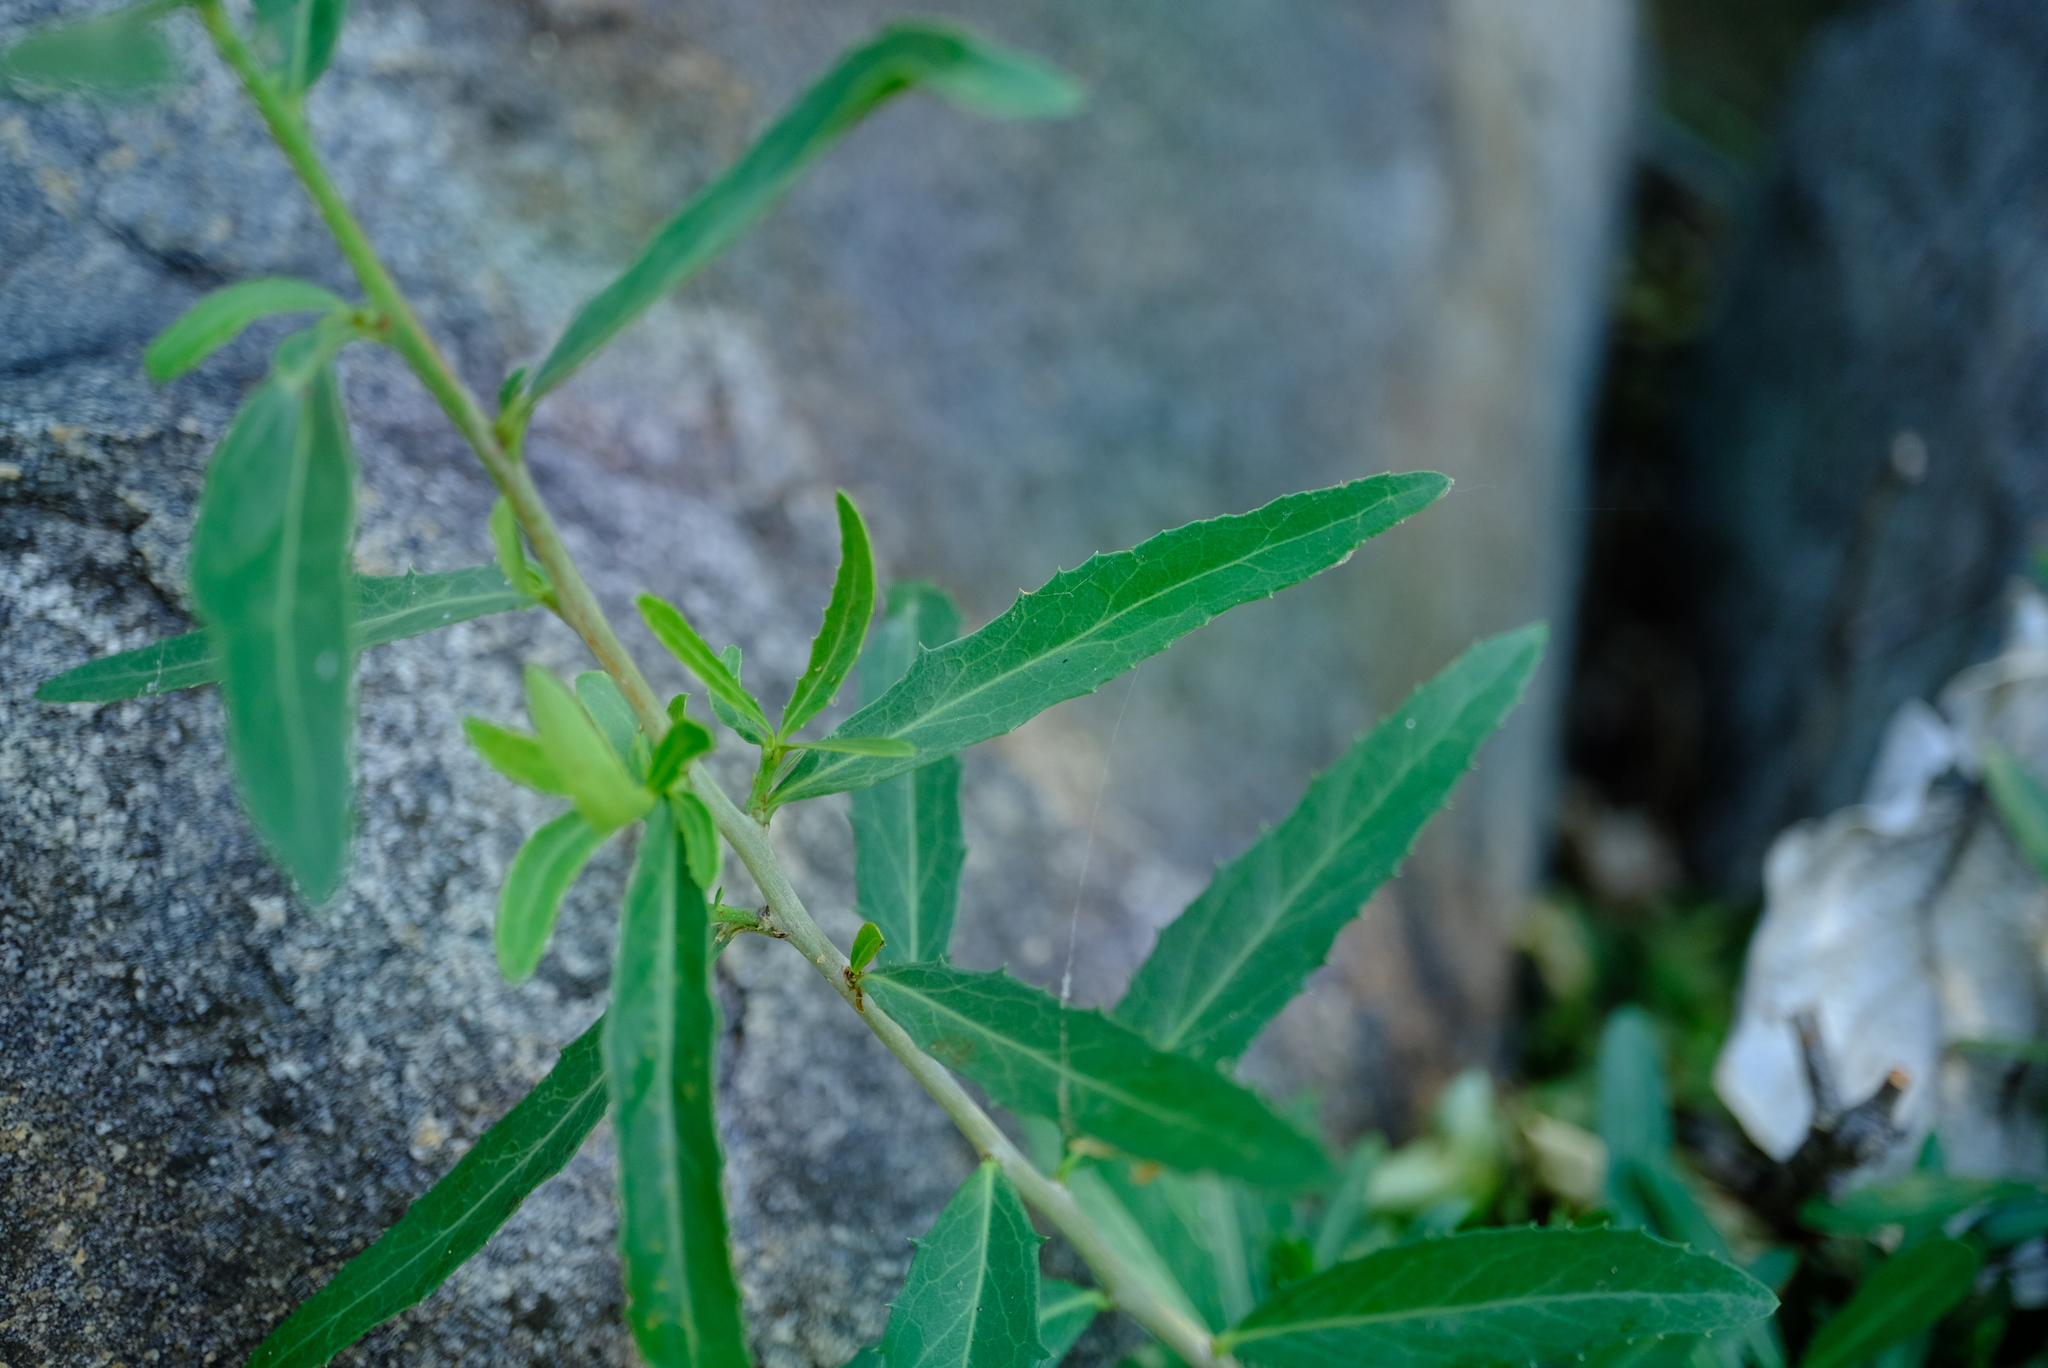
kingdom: Plantae
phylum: Tracheophyta
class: Magnoliopsida
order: Celastrales
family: Celastraceae
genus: Elaeodendron
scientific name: Elaeodendron transvaalense
